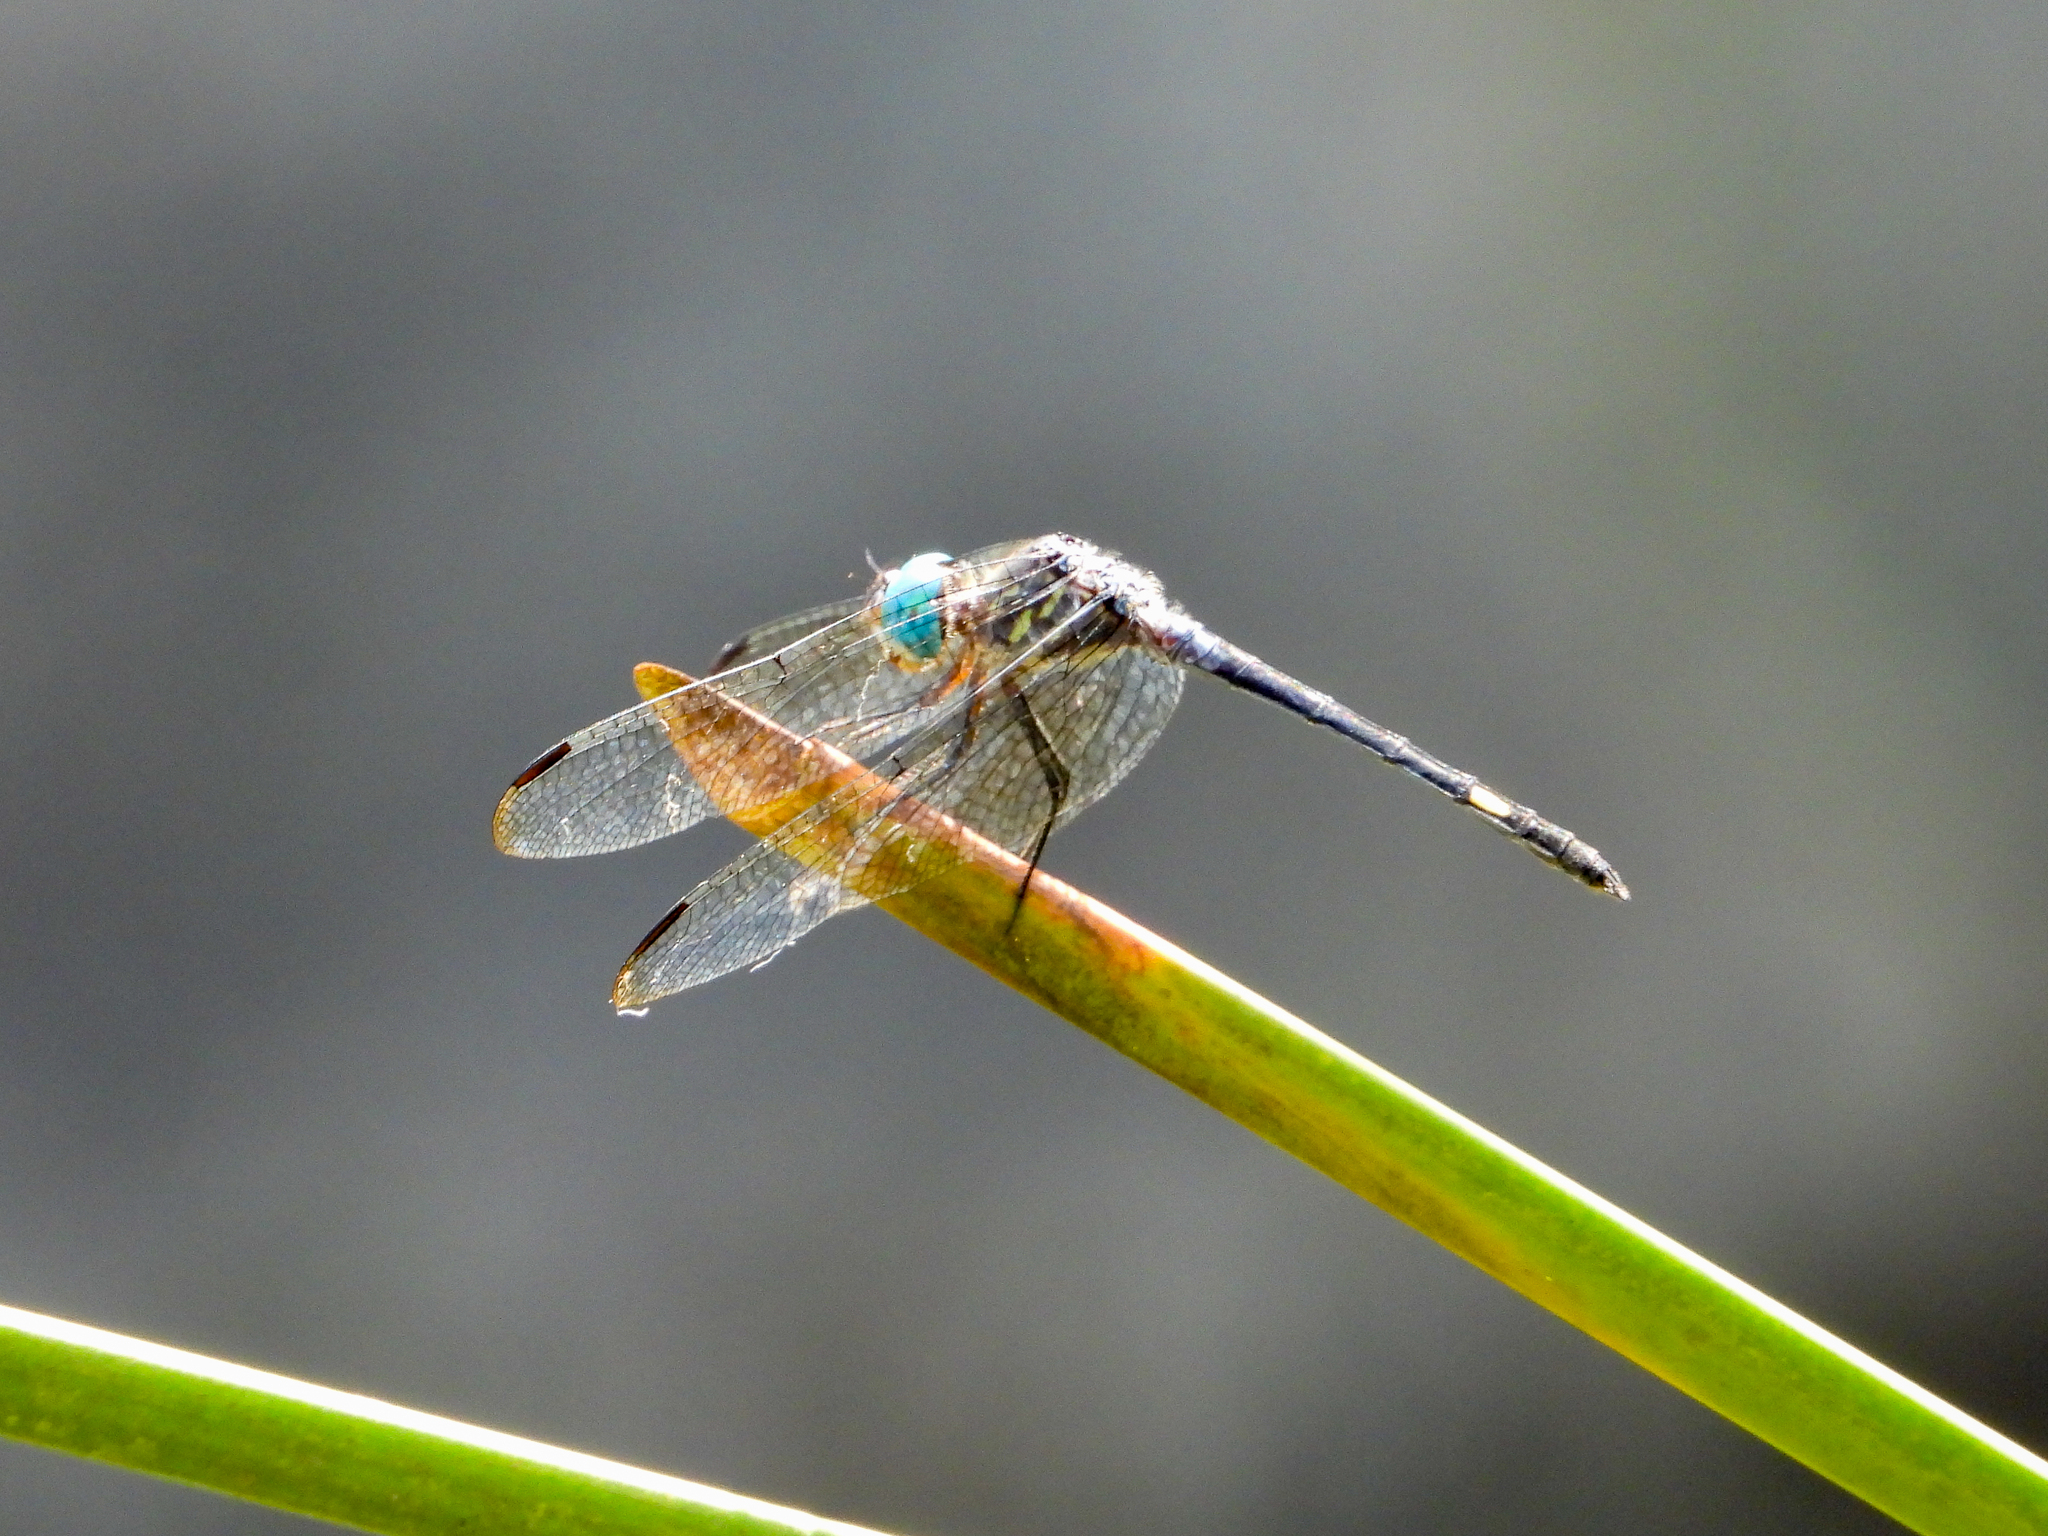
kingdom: Animalia
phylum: Arthropoda
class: Insecta
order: Odonata
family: Libellulidae
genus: Micrathyria
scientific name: Micrathyria atra
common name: Black dasher
